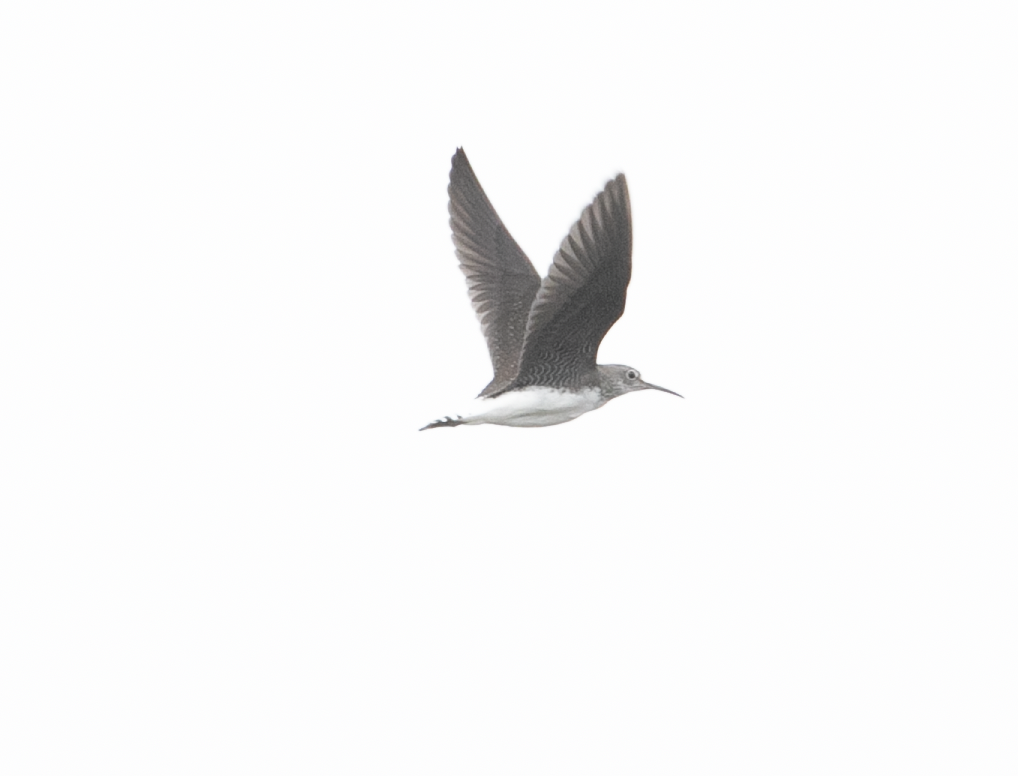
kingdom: Animalia
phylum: Chordata
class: Aves
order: Charadriiformes
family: Scolopacidae
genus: Tringa
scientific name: Tringa ochropus
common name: Green sandpiper
